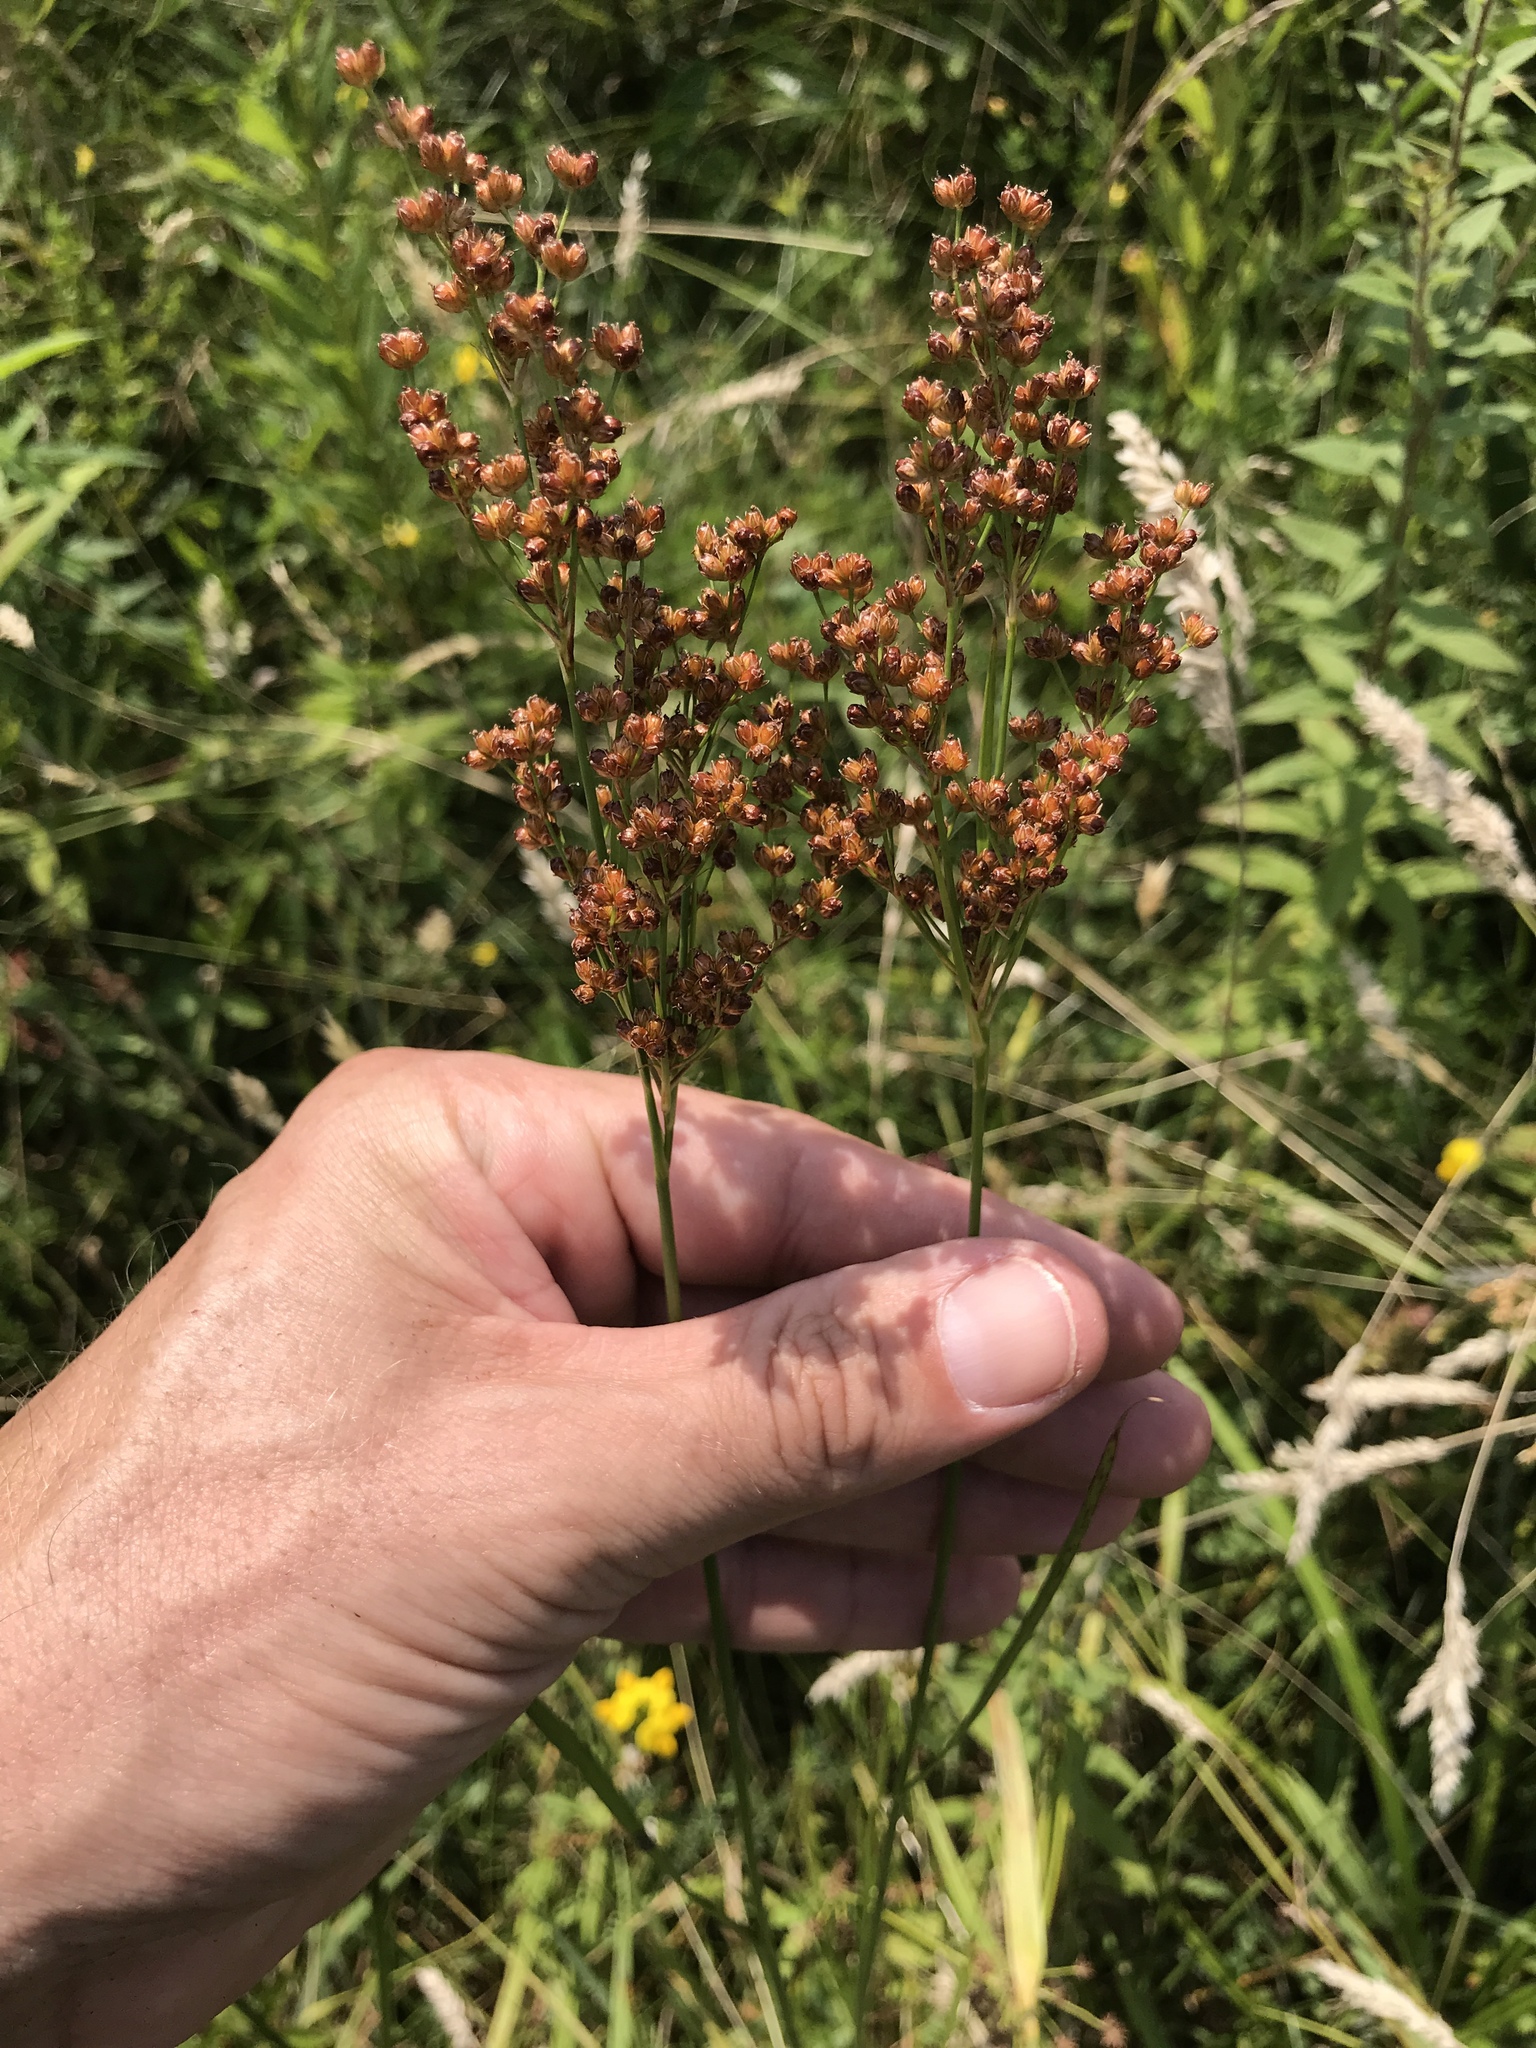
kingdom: Plantae
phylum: Tracheophyta
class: Liliopsida
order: Poales
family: Juncaceae
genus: Juncus
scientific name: Juncus biflorus
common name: Two-flowered rush
